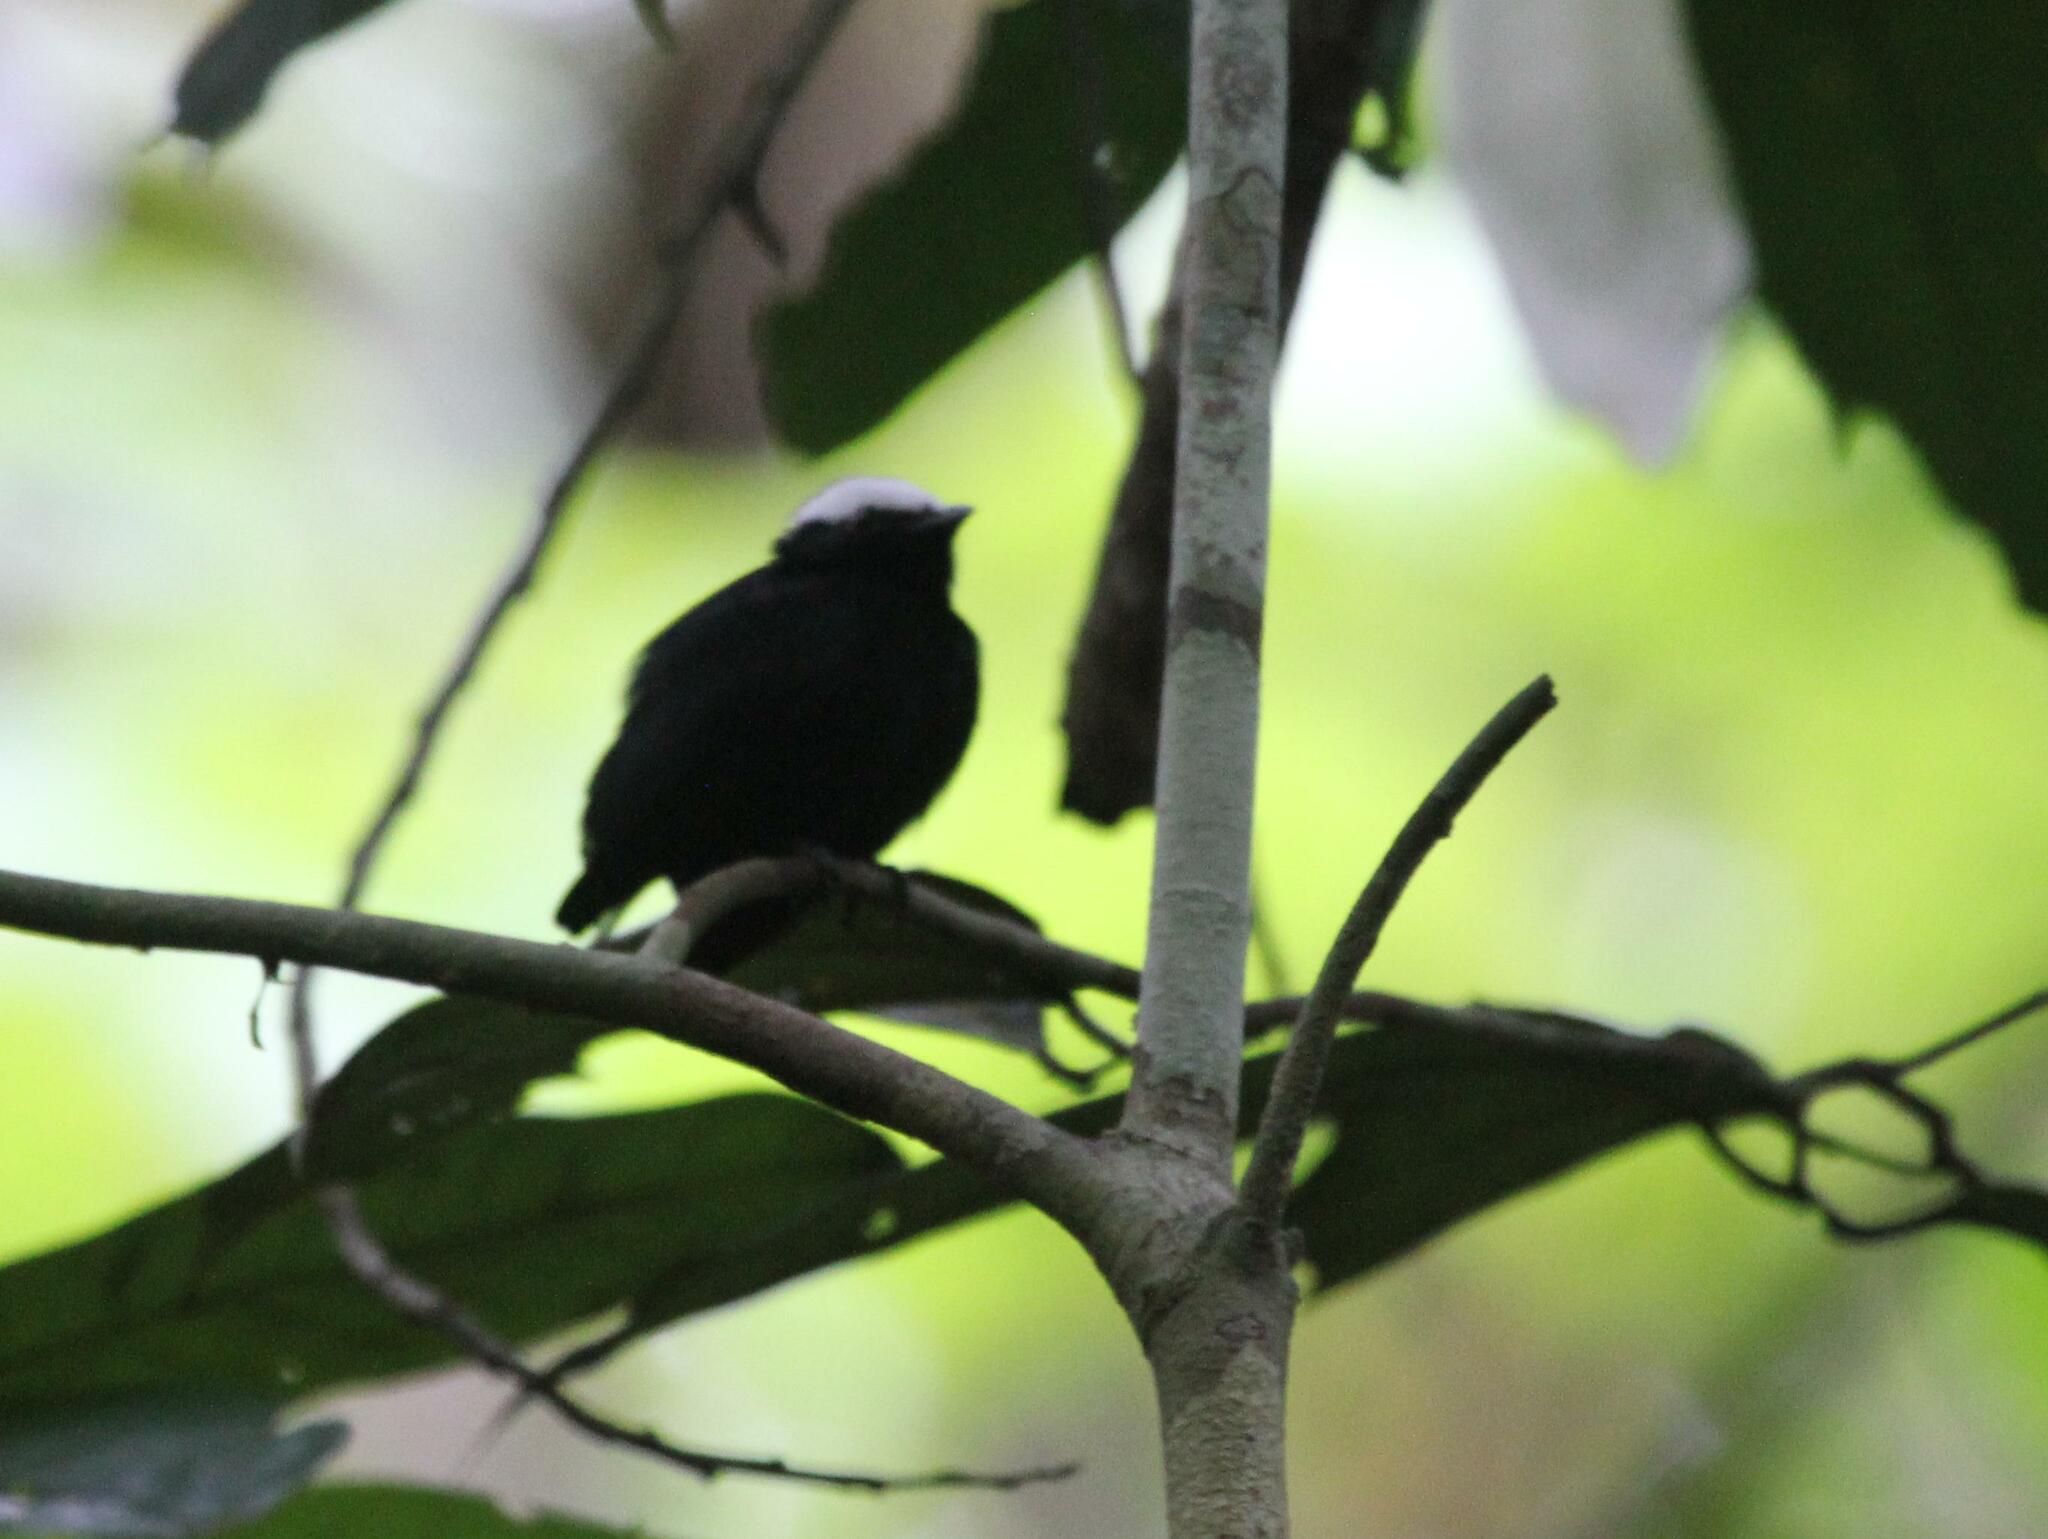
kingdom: Animalia
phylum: Chordata
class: Aves
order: Passeriformes
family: Pipridae
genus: Pipra
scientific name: Pipra pipra
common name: White-crowned manakin
